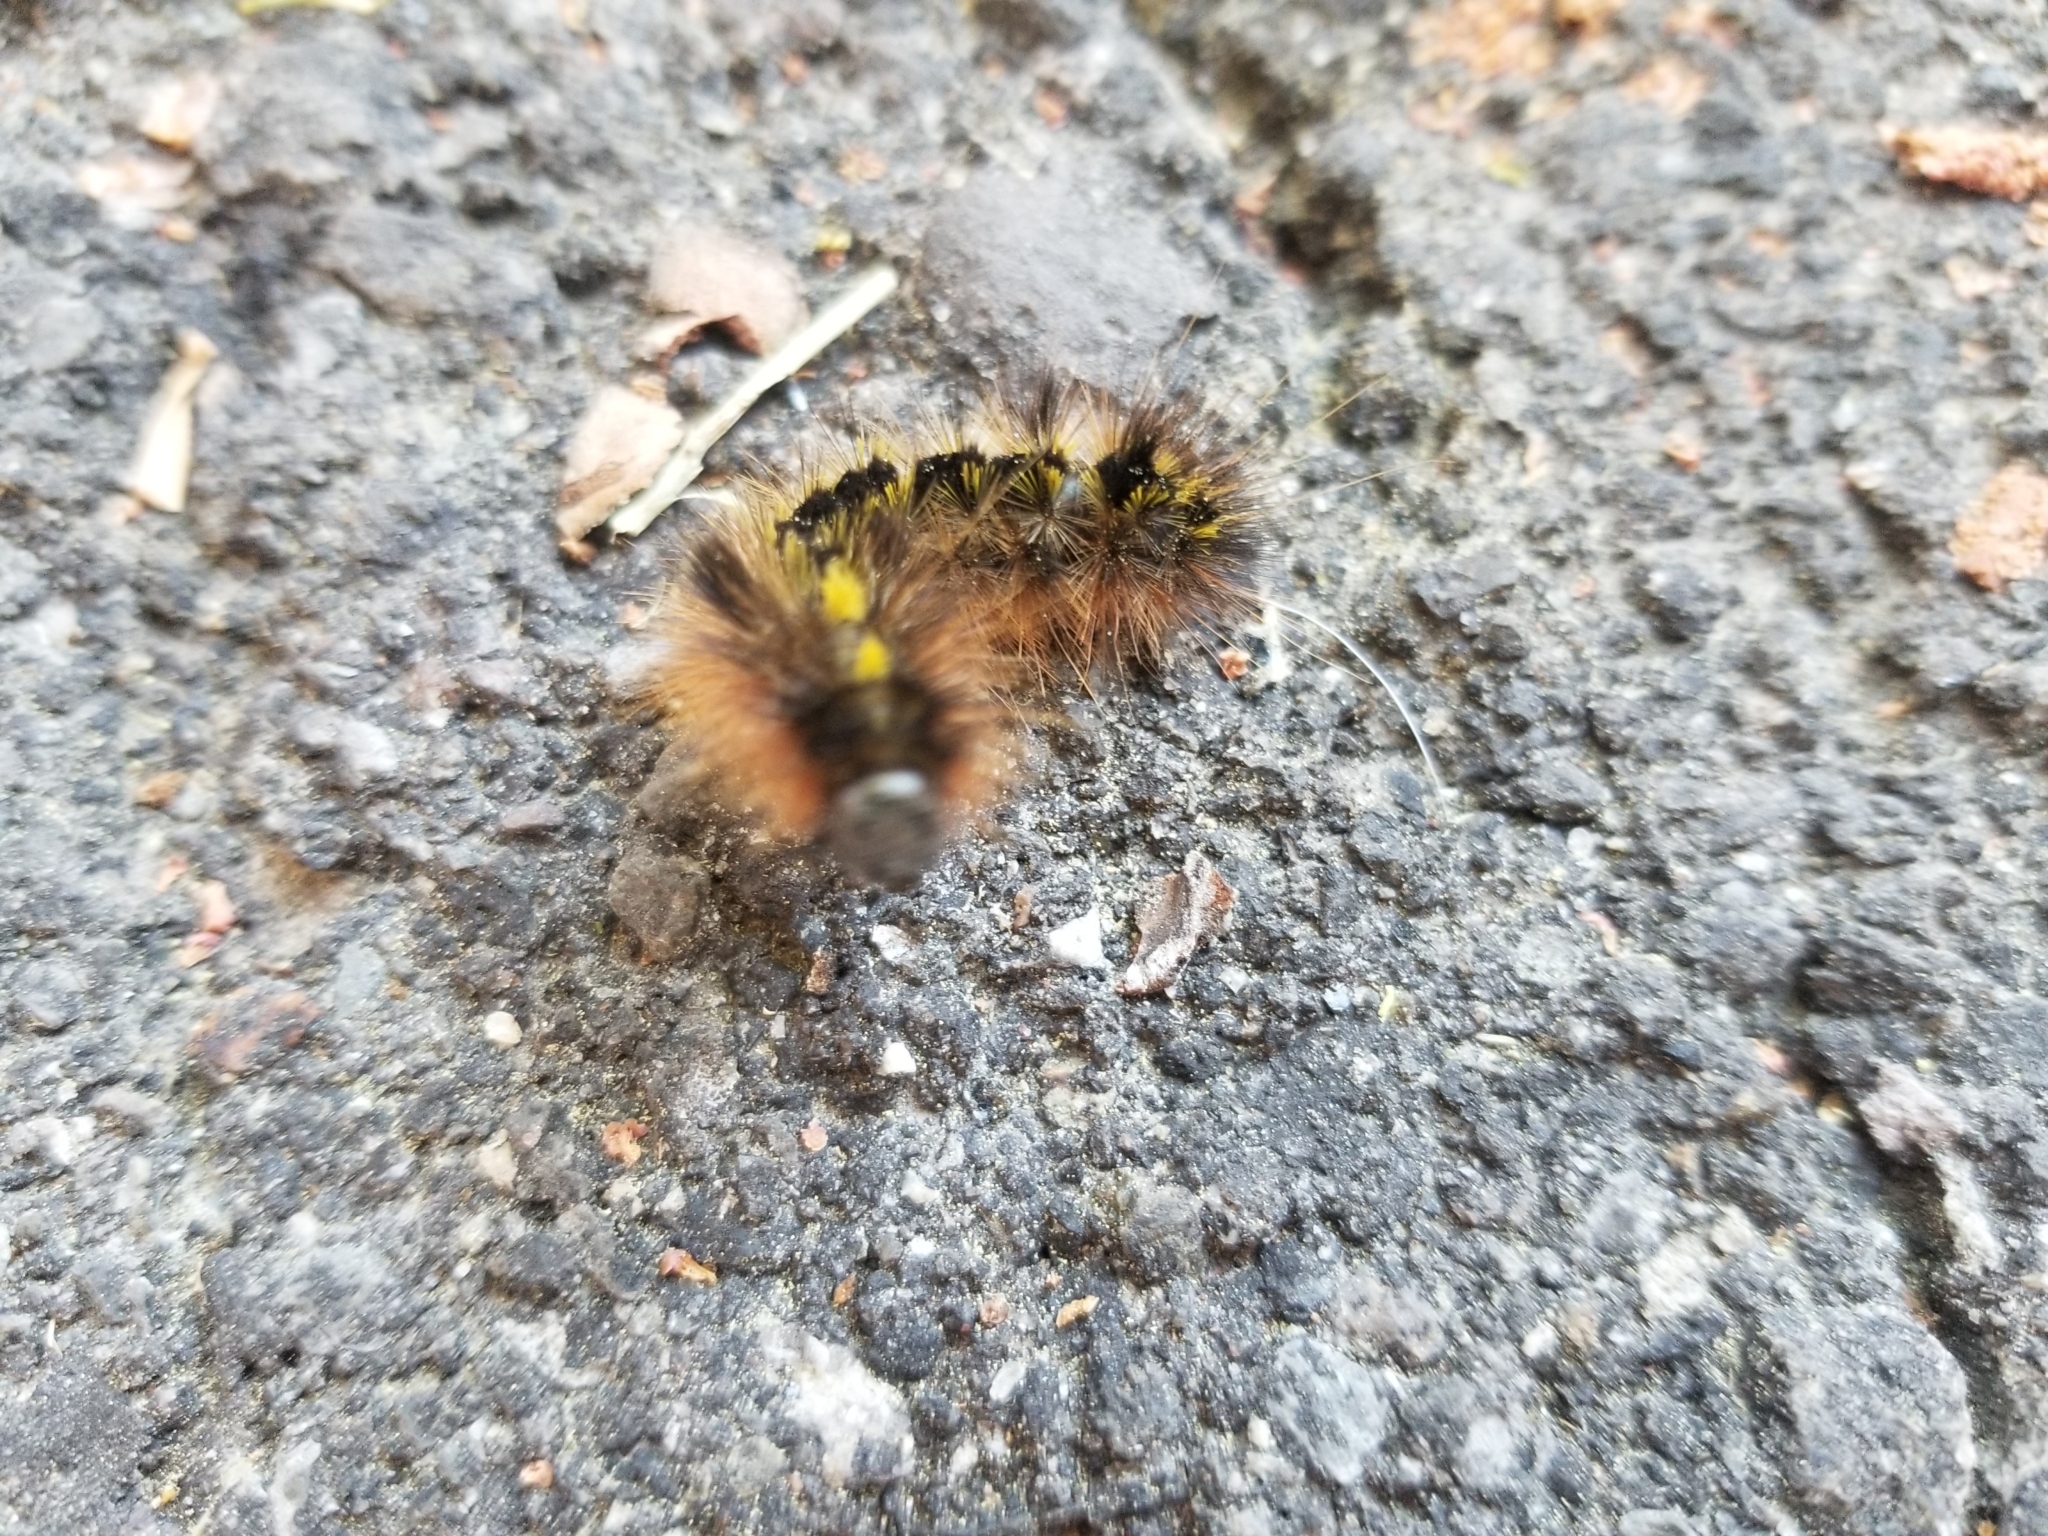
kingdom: Animalia
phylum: Arthropoda
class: Insecta
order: Lepidoptera
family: Erebidae
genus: Lophocampa
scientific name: Lophocampa argentata
